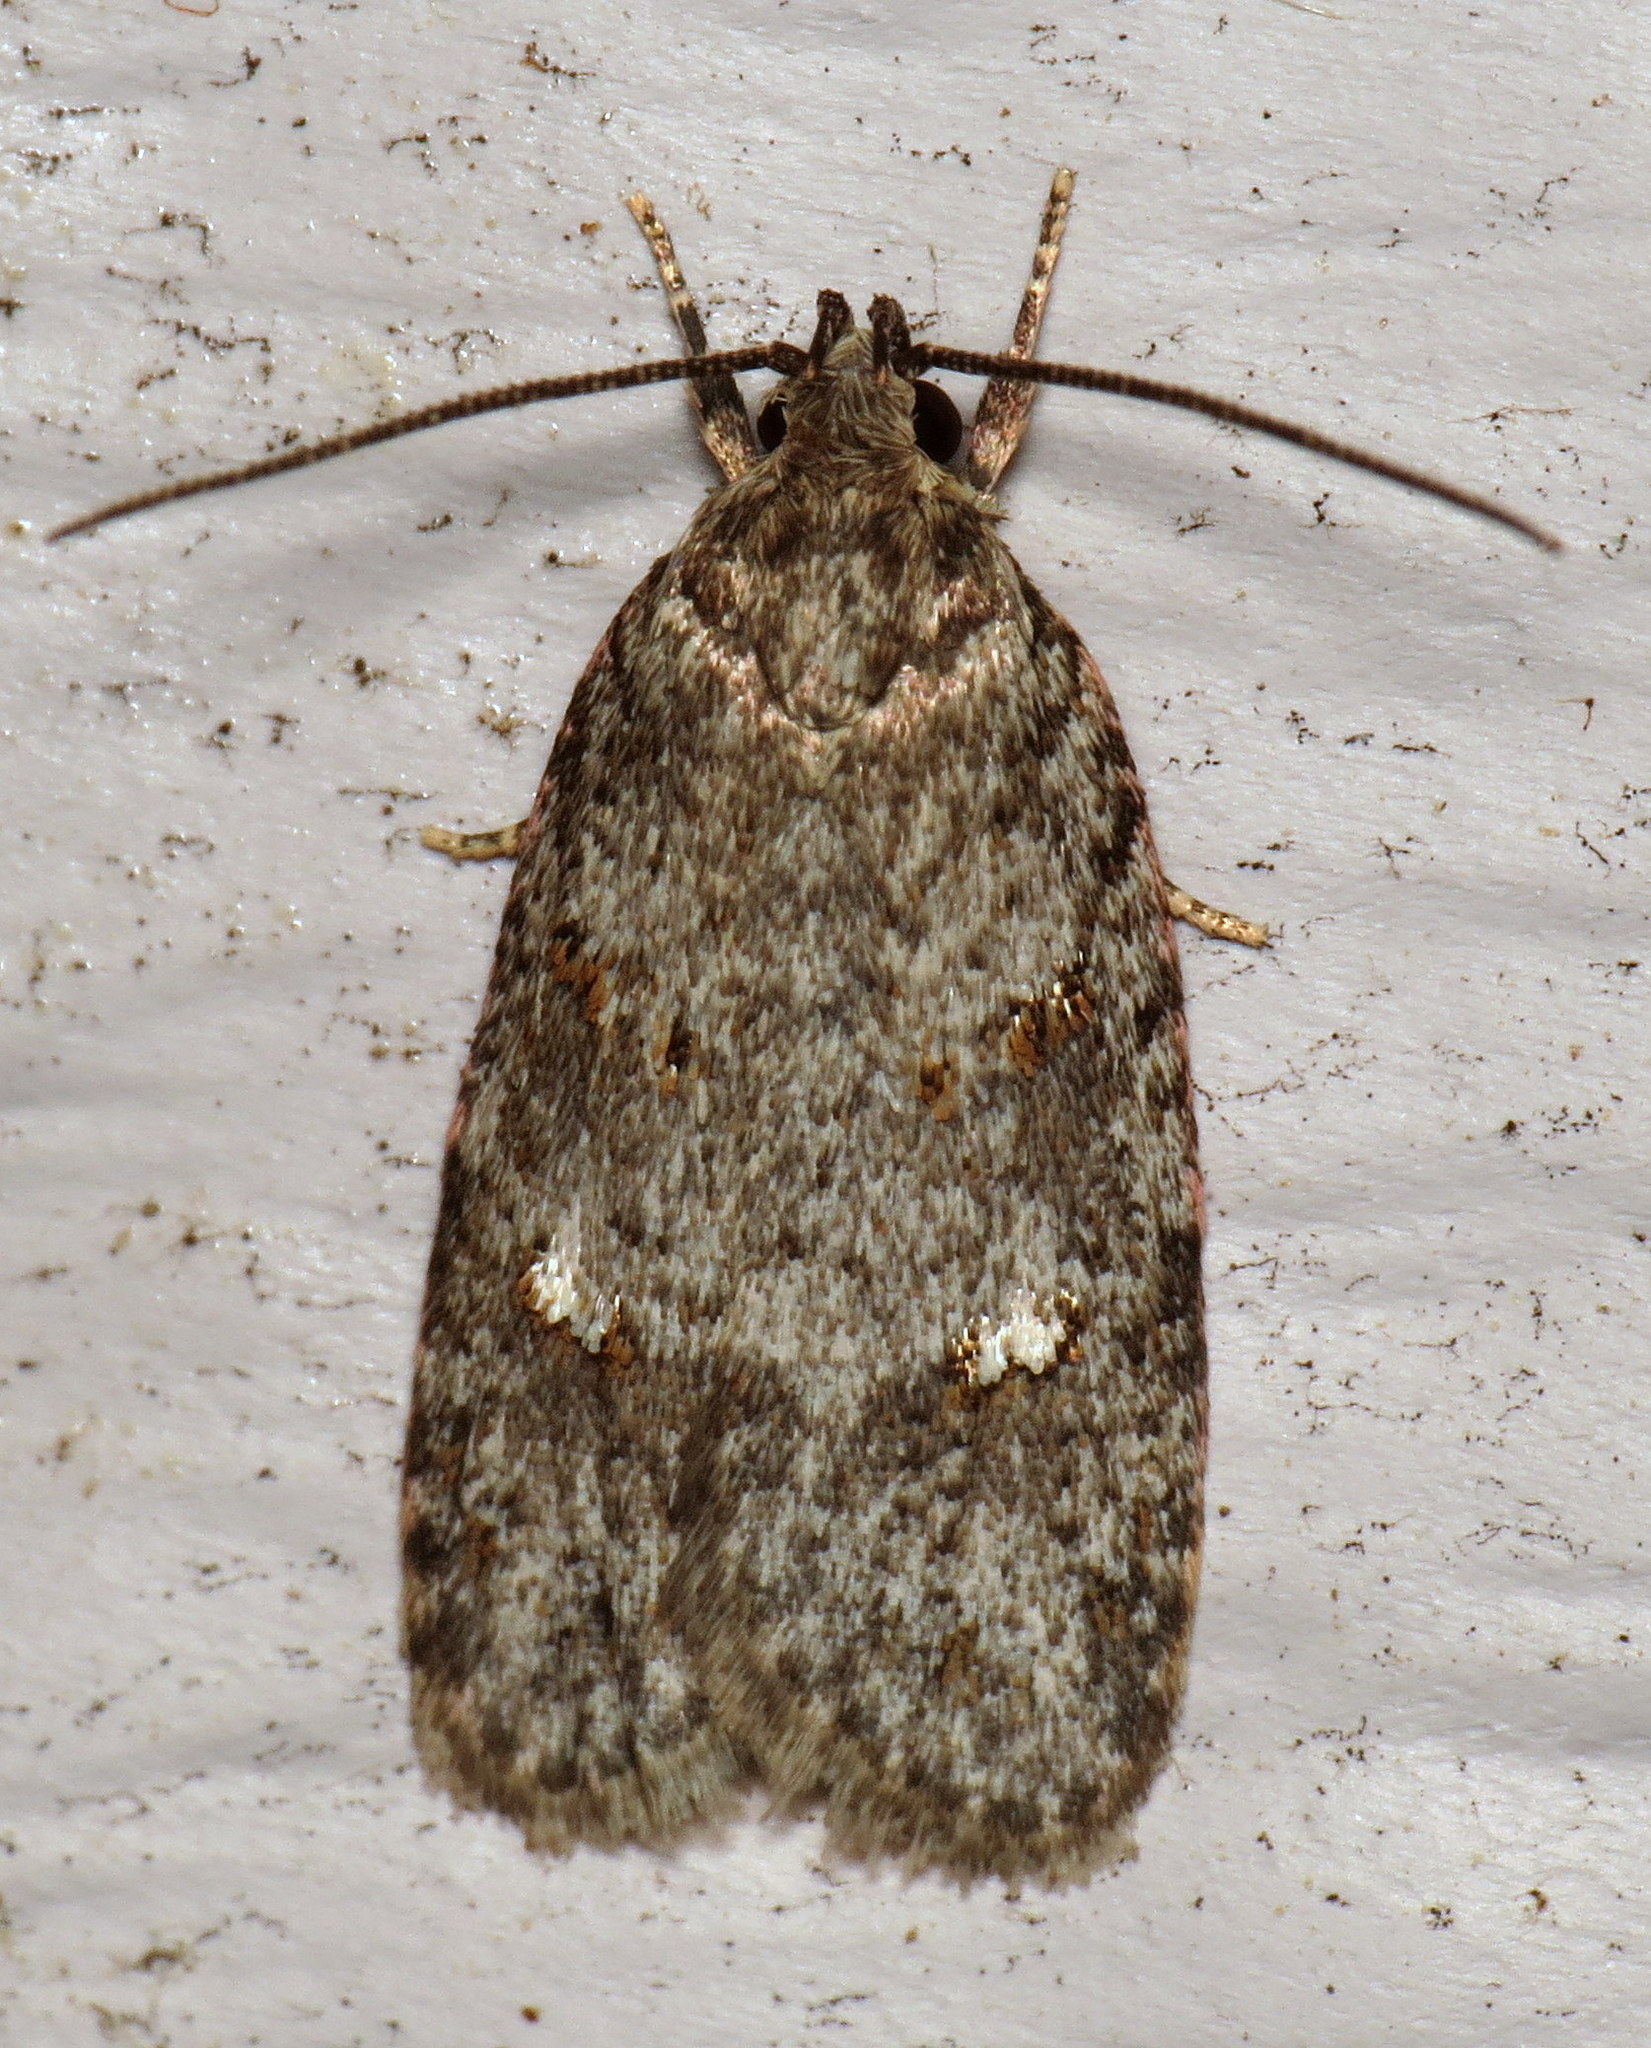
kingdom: Animalia
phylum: Arthropoda
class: Insecta
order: Lepidoptera
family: Depressariidae
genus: Bibarrambla
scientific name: Bibarrambla allenella
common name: Bog bibarrambla moth
